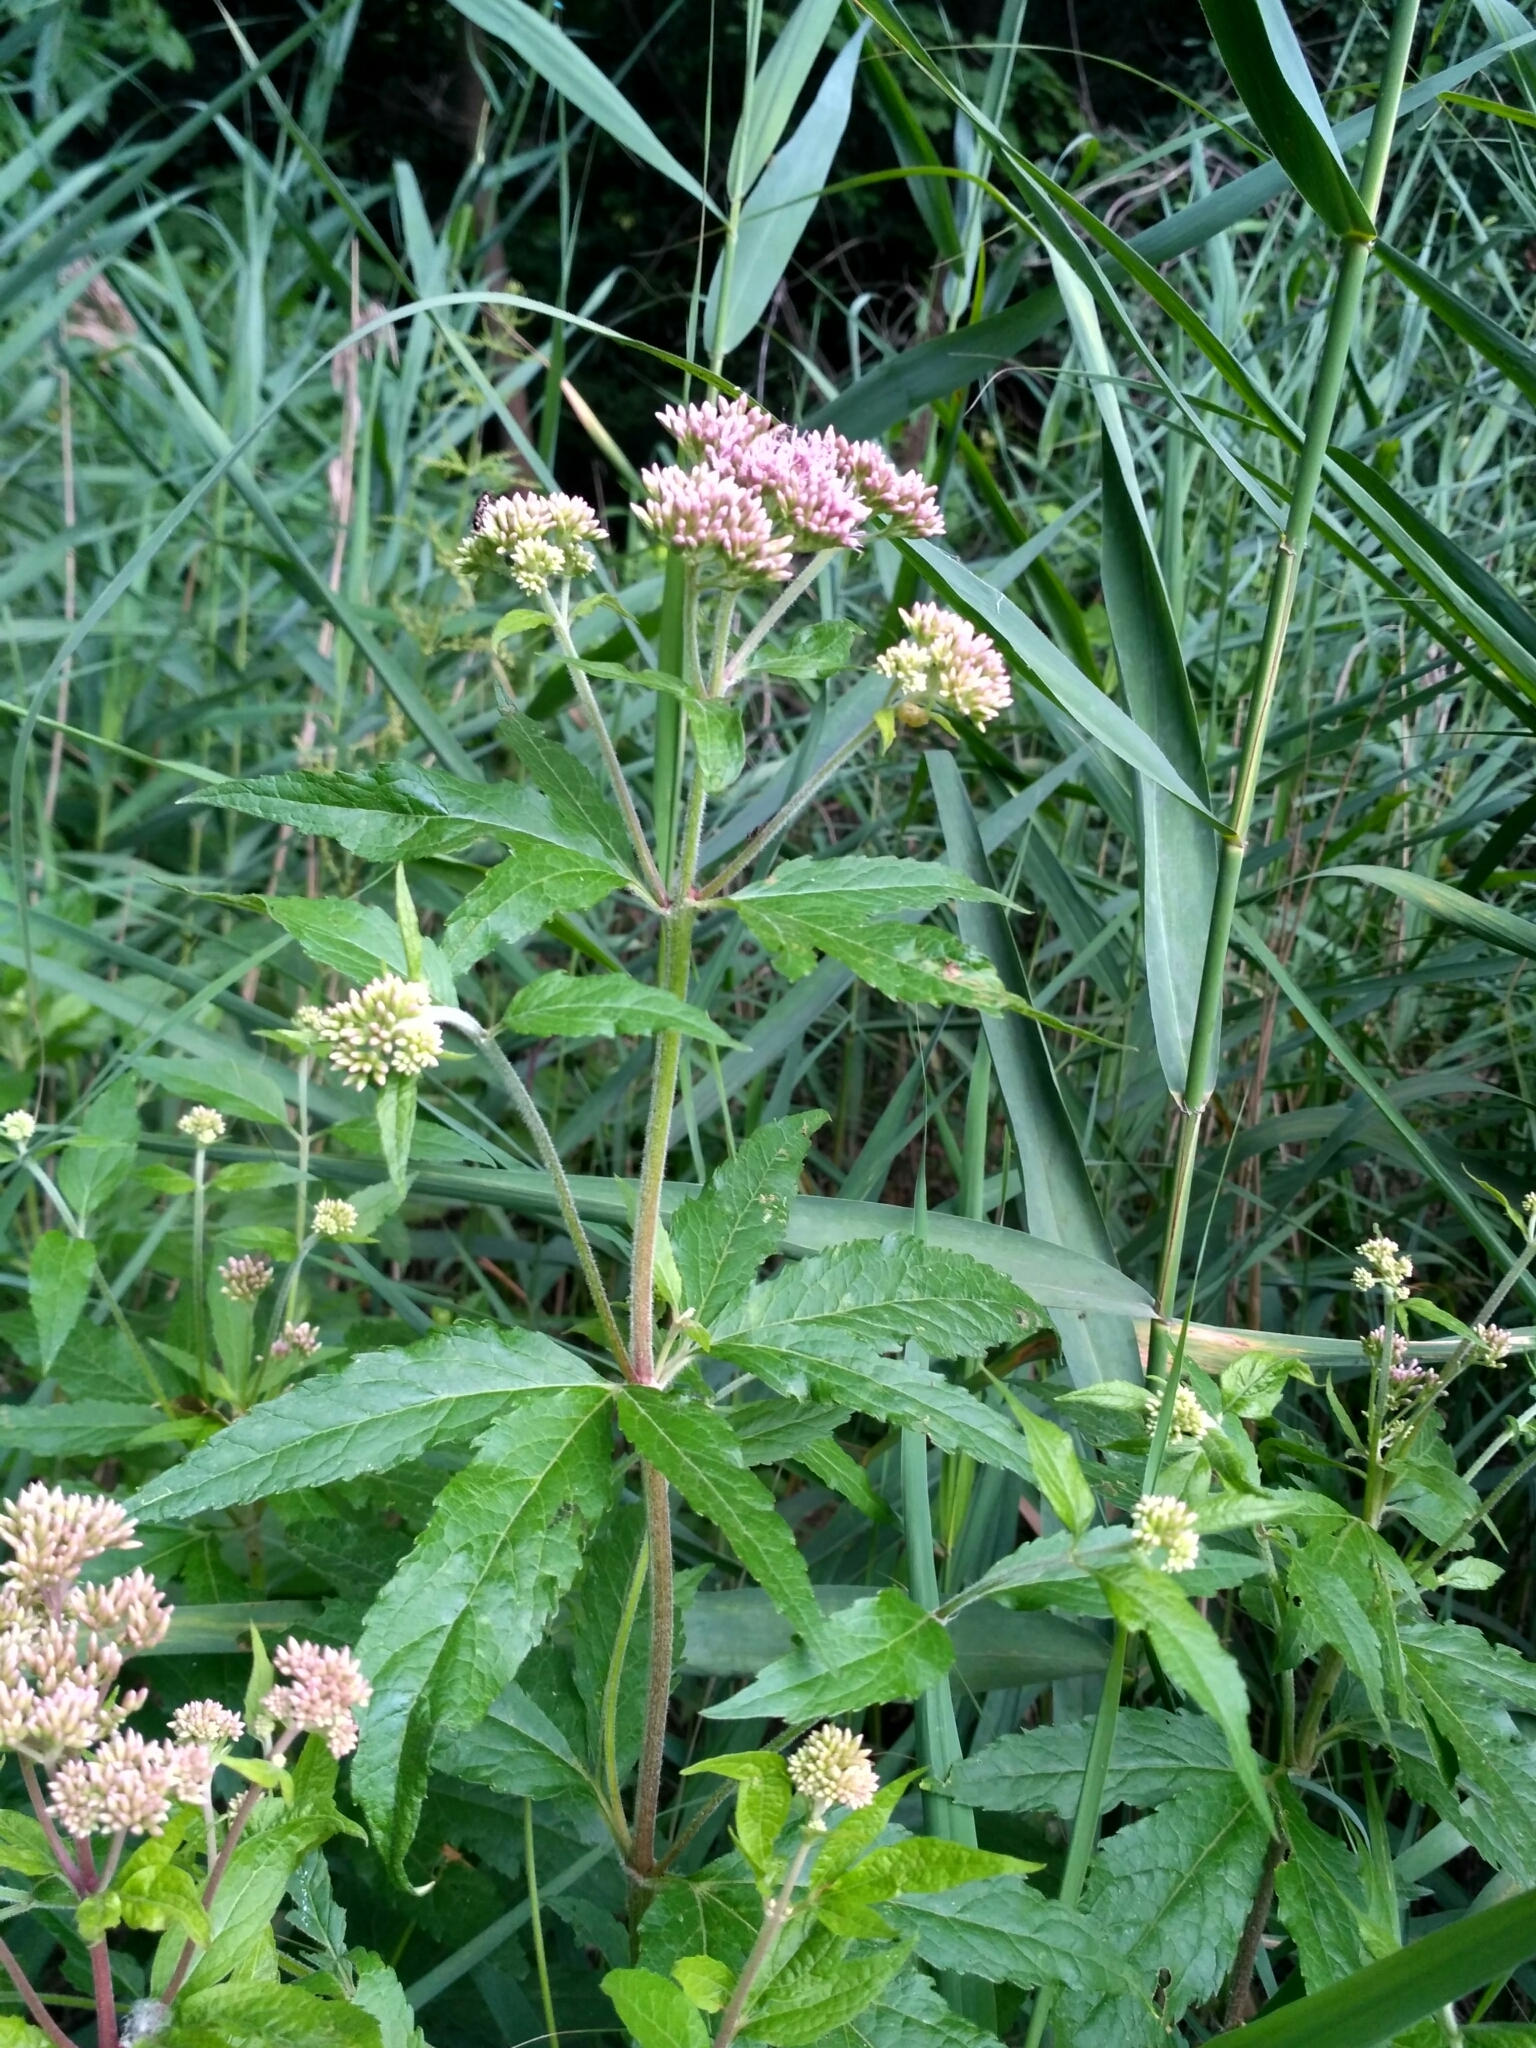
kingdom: Plantae
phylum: Tracheophyta
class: Magnoliopsida
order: Asterales
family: Asteraceae
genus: Eupatorium
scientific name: Eupatorium cannabinum
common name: Hemp-agrimony
